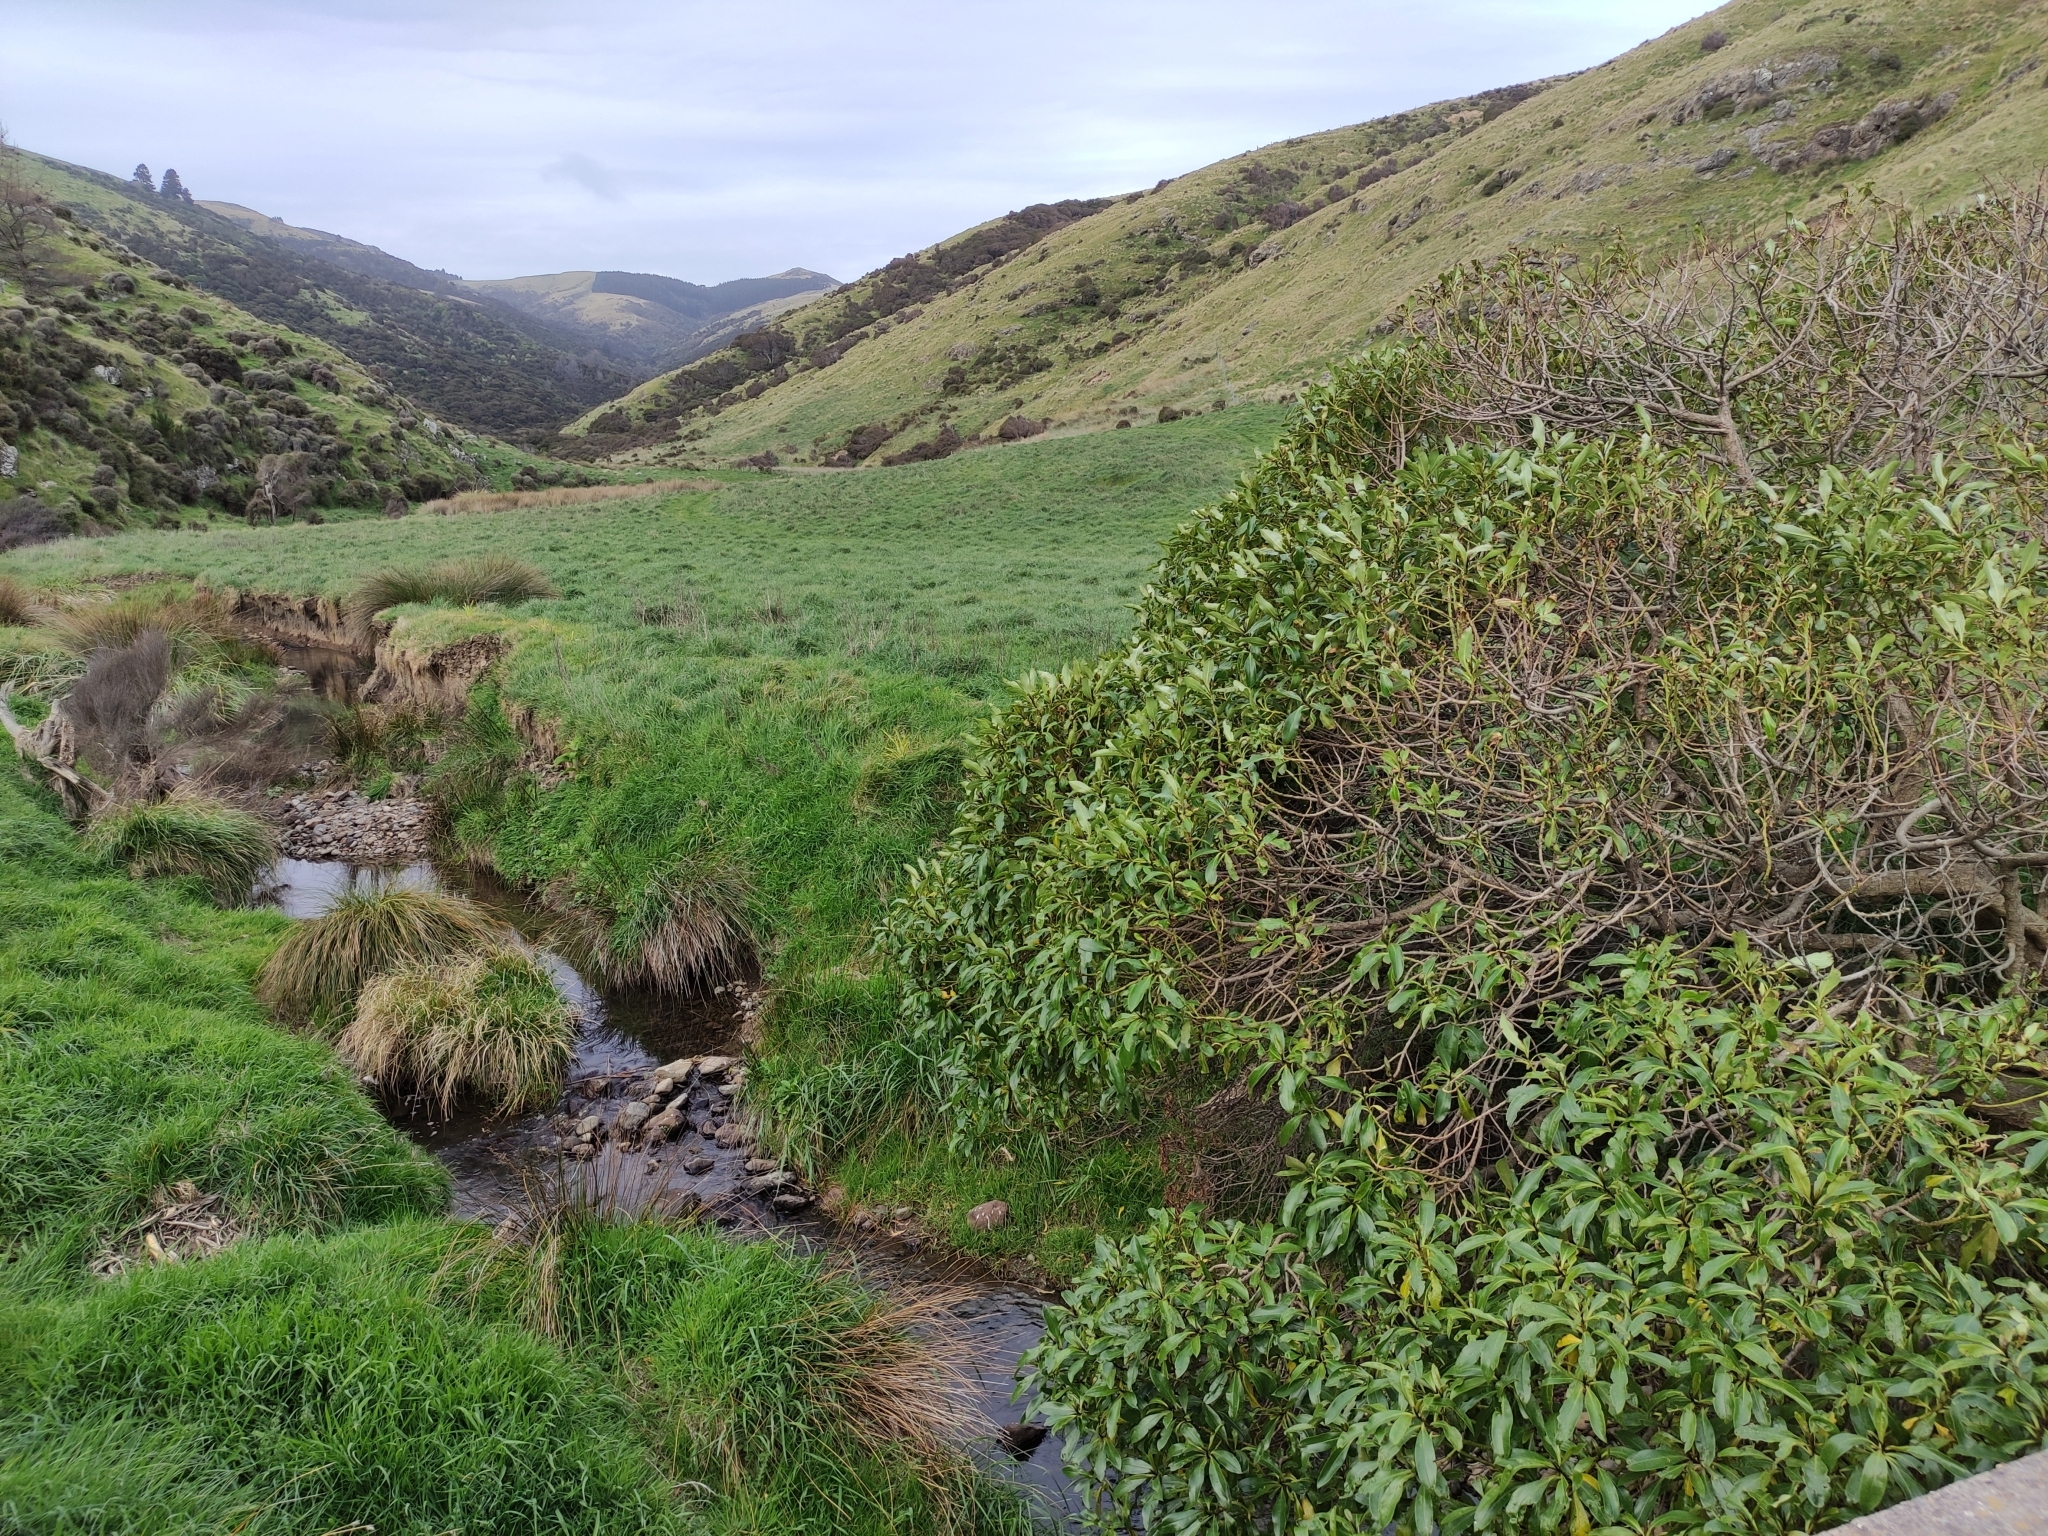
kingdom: Plantae
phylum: Tracheophyta
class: Magnoliopsida
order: Lamiales
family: Scrophulariaceae
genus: Myoporum
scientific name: Myoporum laetum
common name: Ngaio tree
